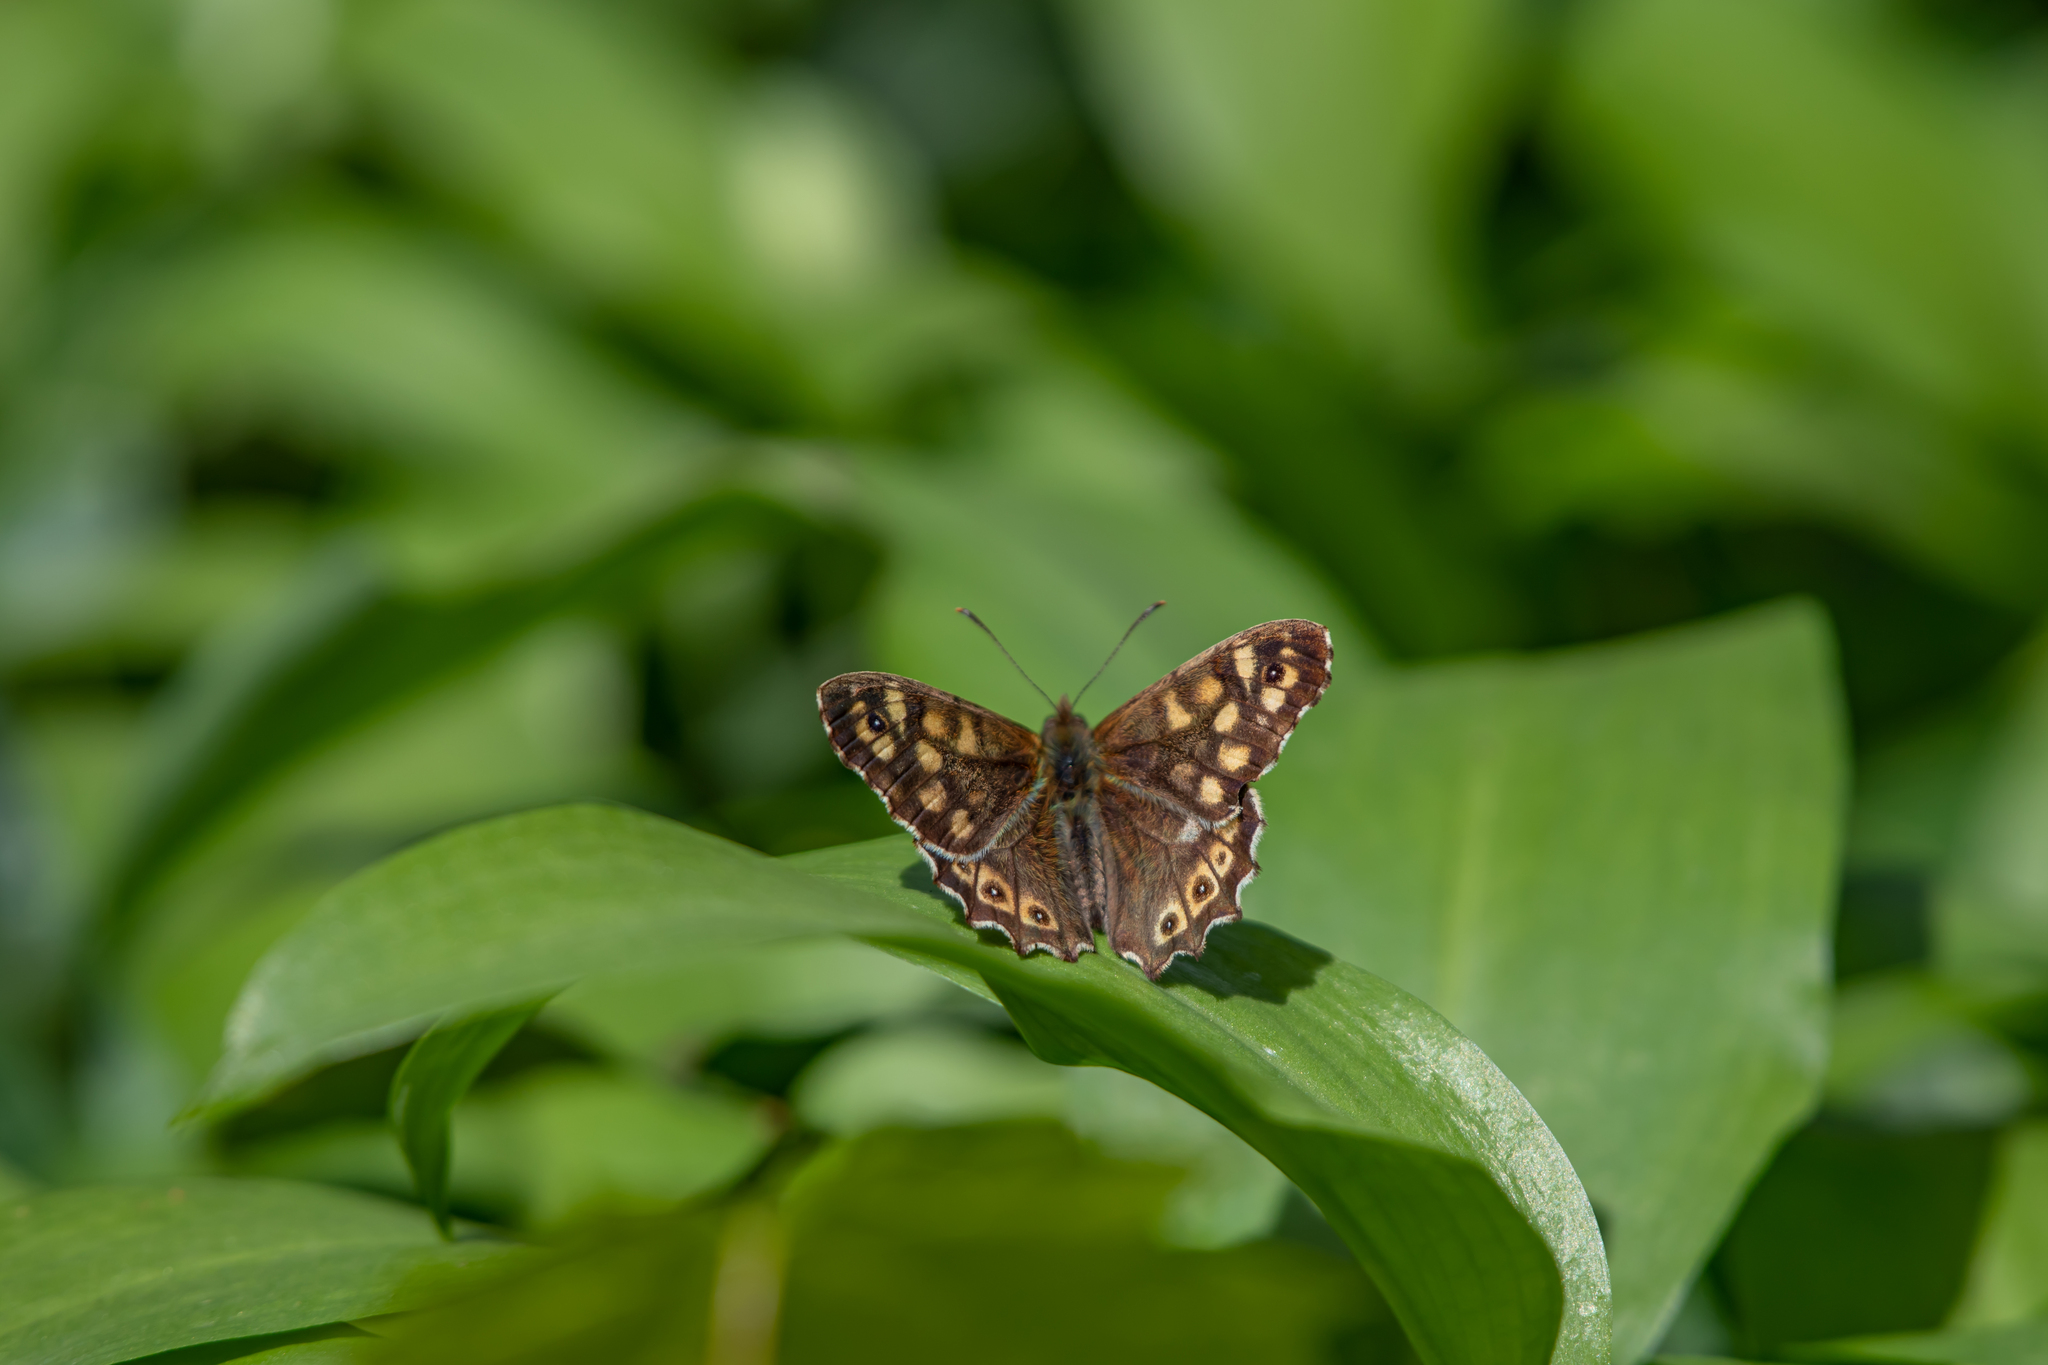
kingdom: Animalia
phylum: Arthropoda
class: Insecta
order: Lepidoptera
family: Nymphalidae
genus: Pararge
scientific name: Pararge aegeria
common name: Speckled wood
